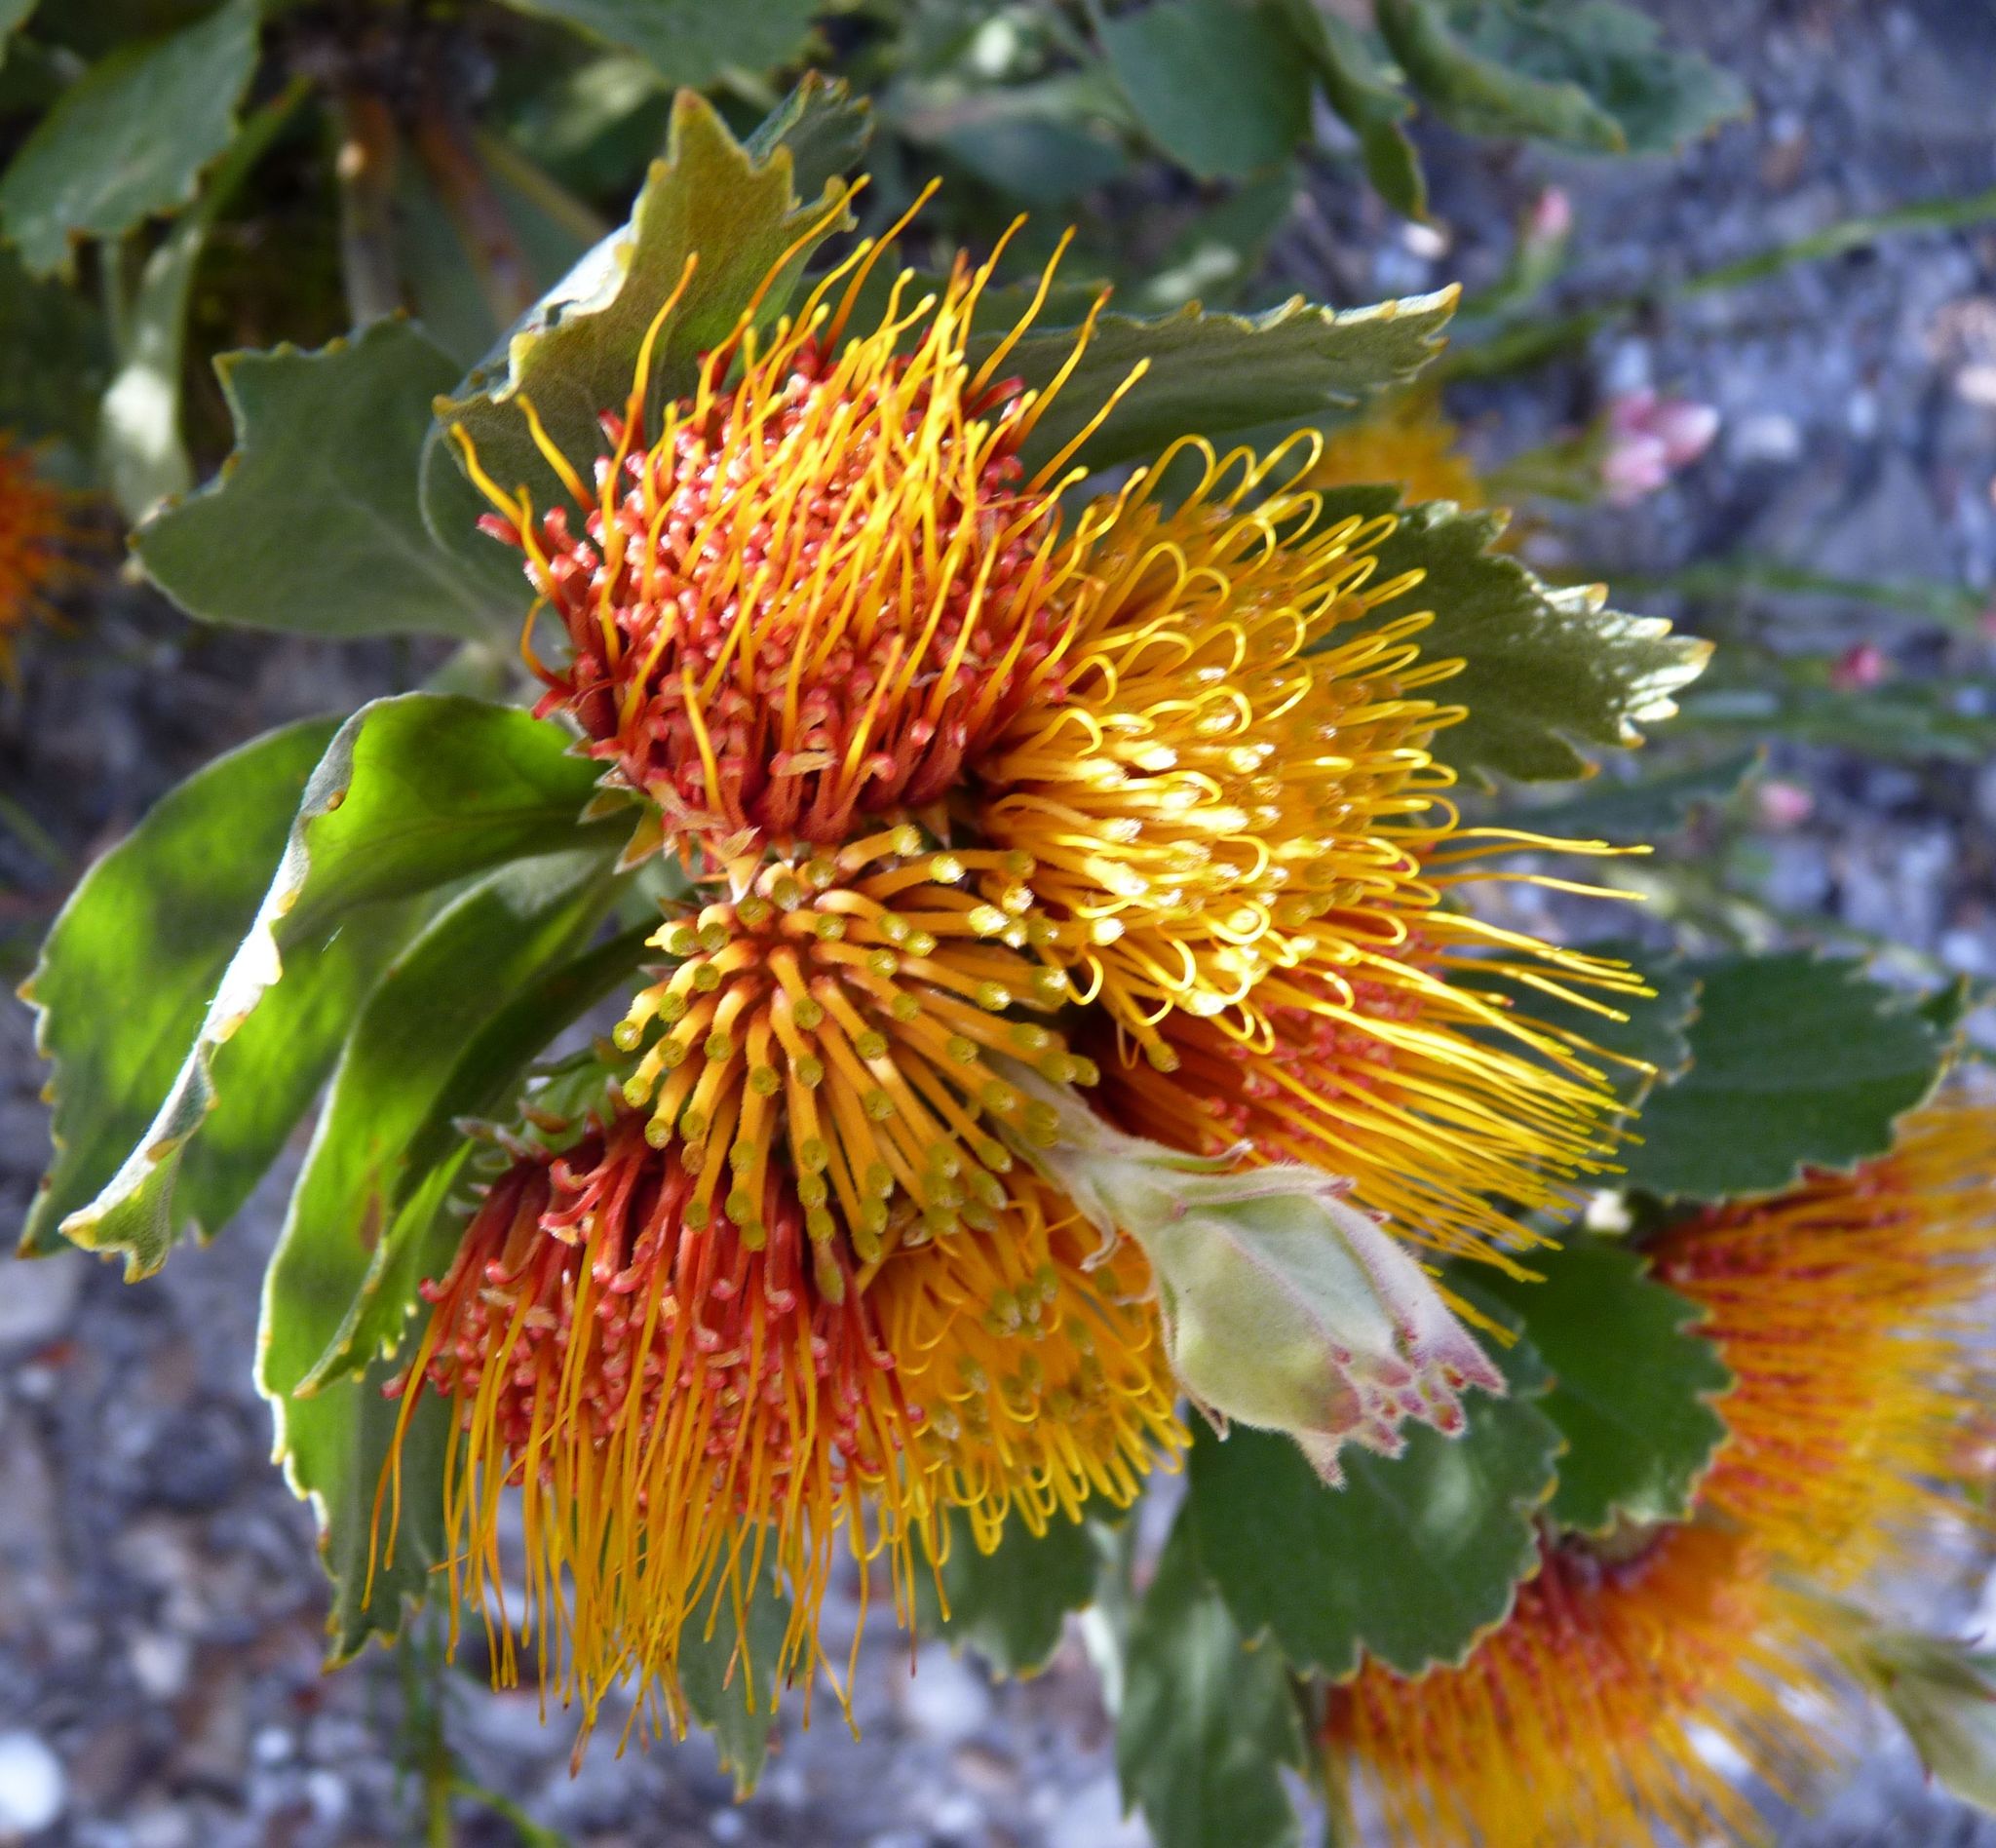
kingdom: Plantae
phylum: Tracheophyta
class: Magnoliopsida
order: Proteales
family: Proteaceae
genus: Leucospermum
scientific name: Leucospermum mundii
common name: Langeberg pincushion
